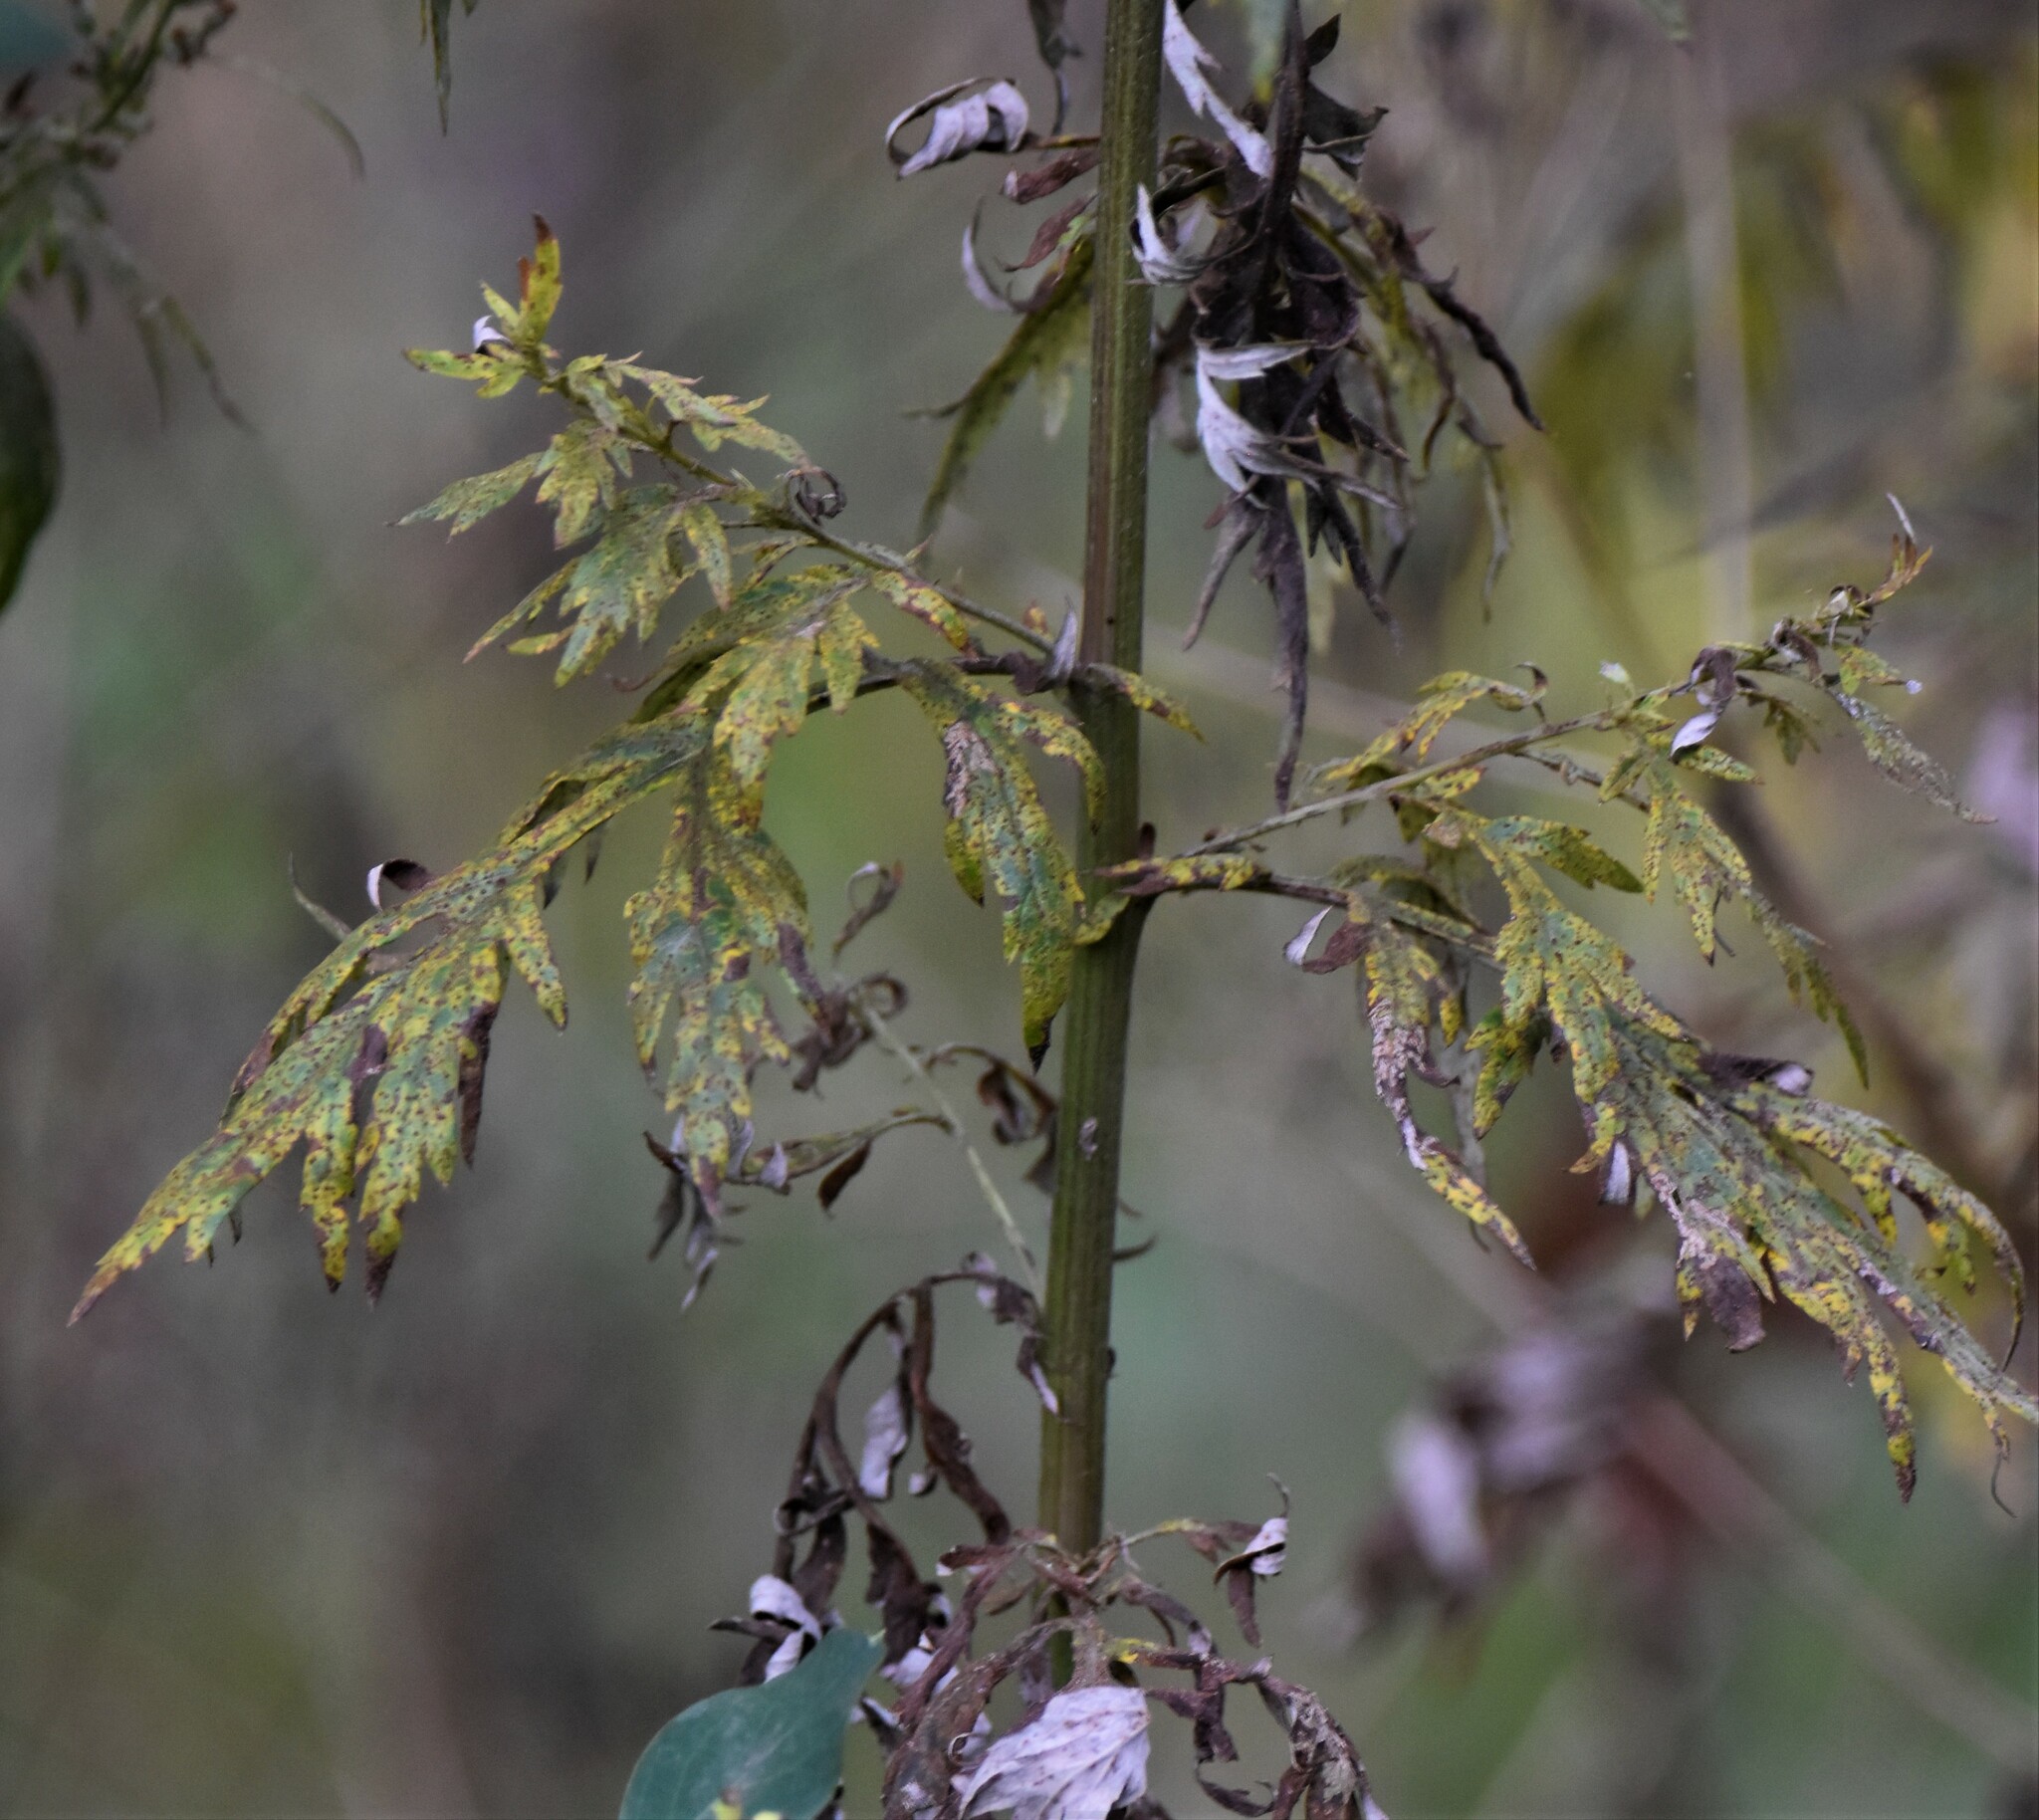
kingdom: Plantae
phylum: Tracheophyta
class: Magnoliopsida
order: Asterales
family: Asteraceae
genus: Artemisia
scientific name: Artemisia vulgaris
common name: Mugwort
